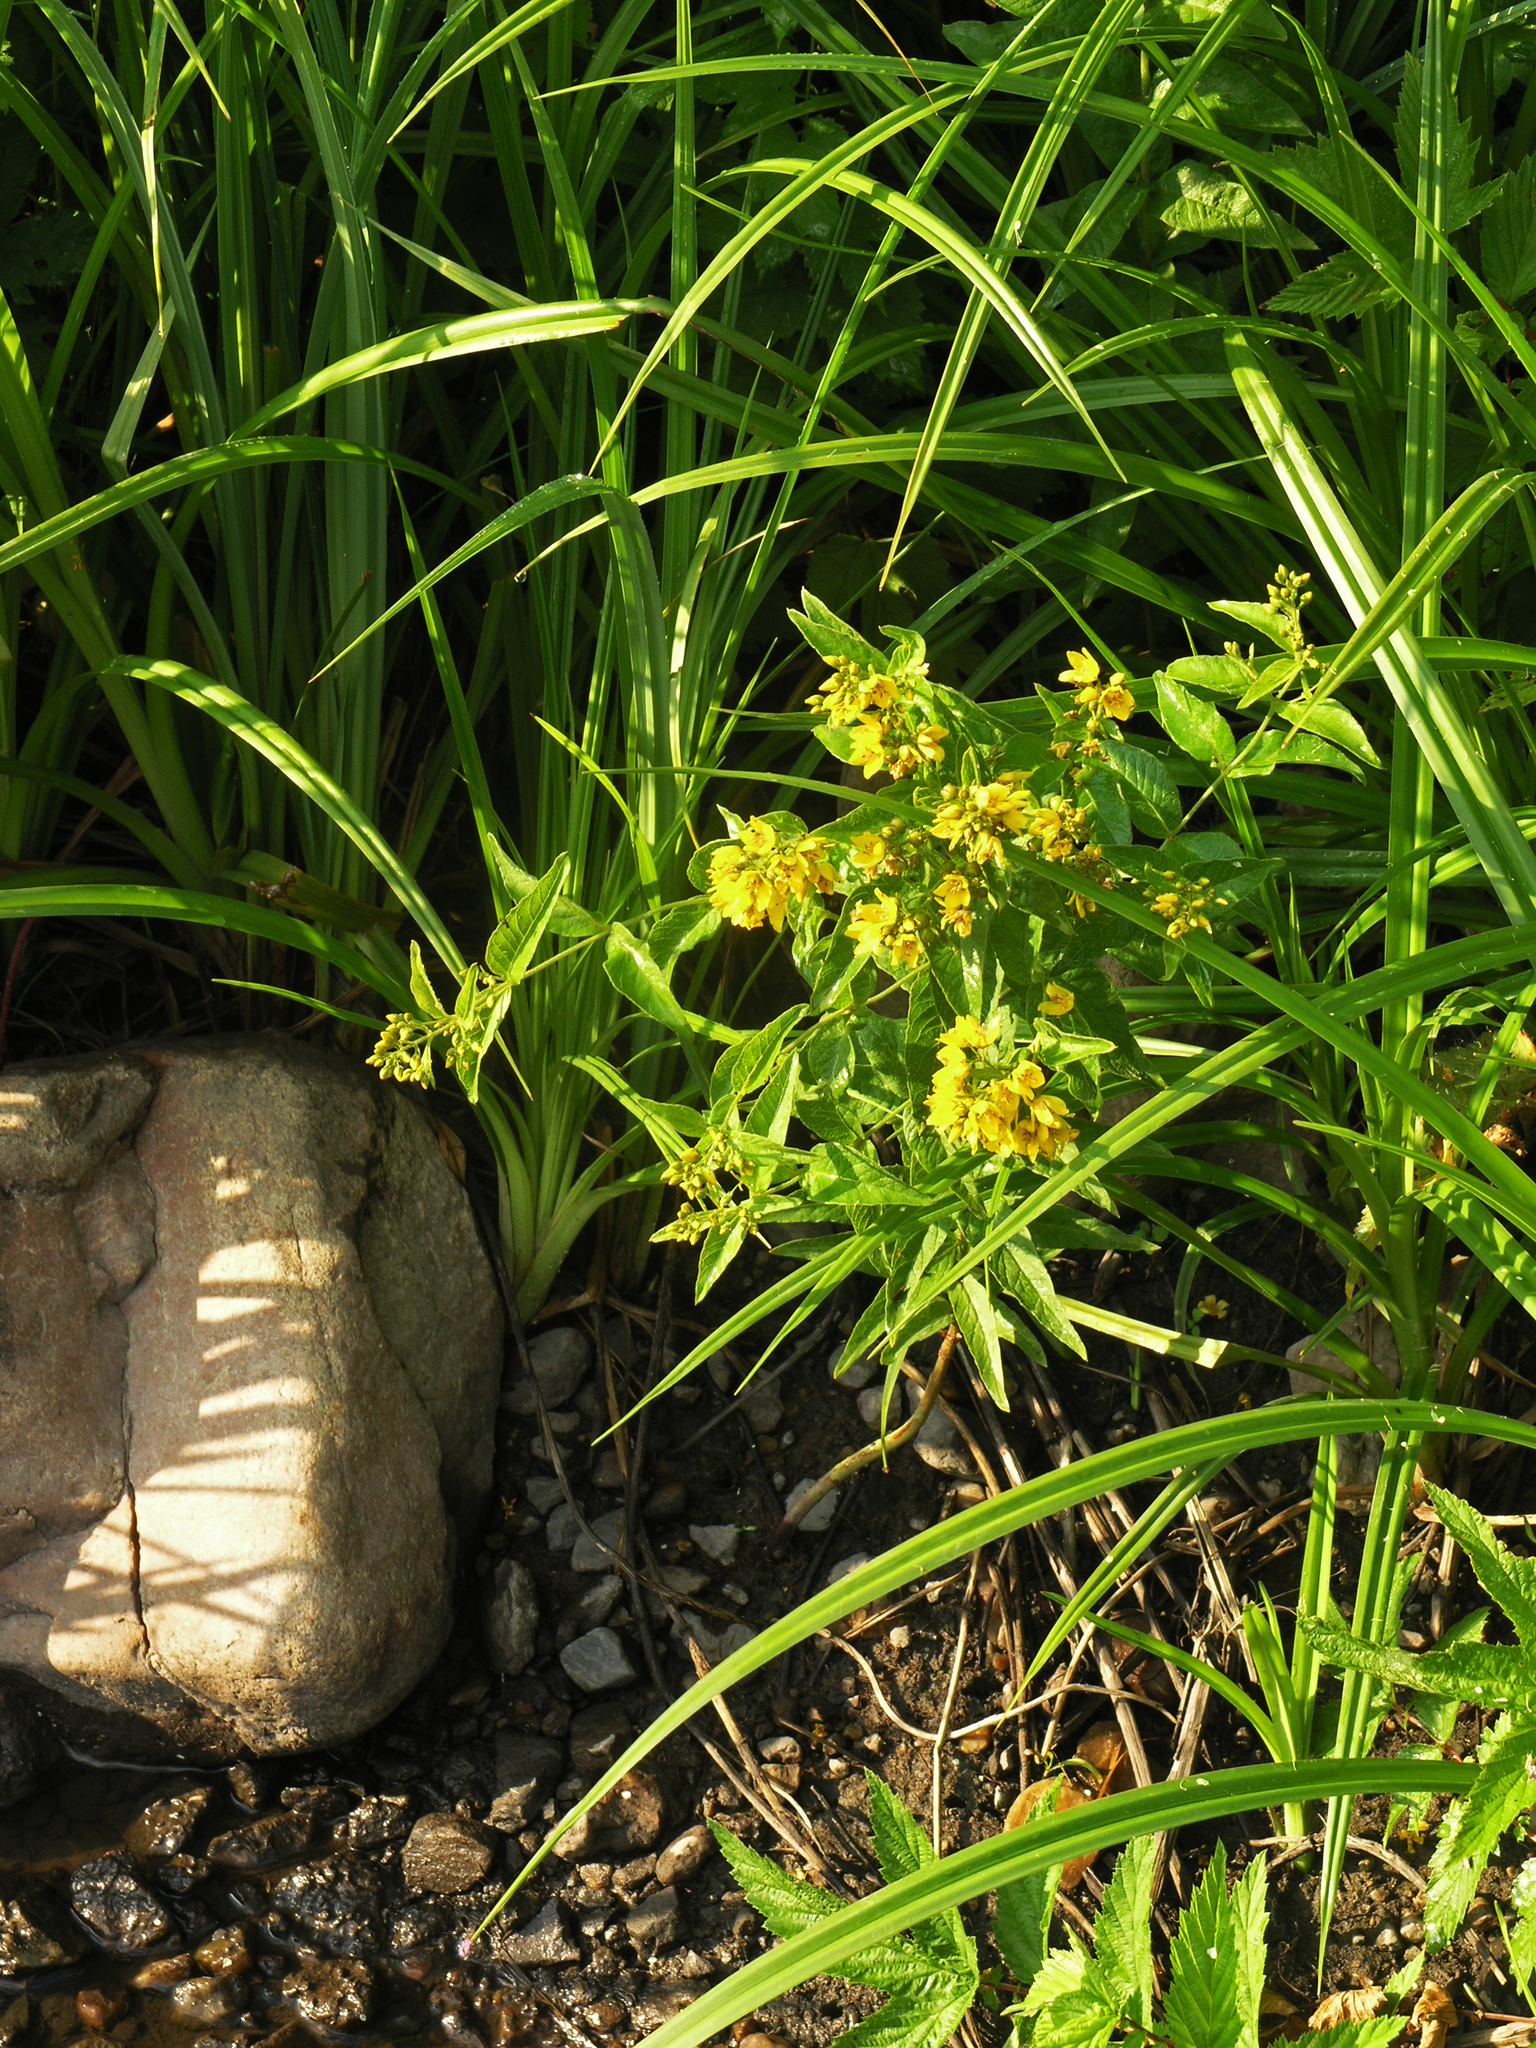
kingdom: Plantae
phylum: Tracheophyta
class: Magnoliopsida
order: Ericales
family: Primulaceae
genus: Lysimachia
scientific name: Lysimachia vulgaris
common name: Yellow loosestrife
